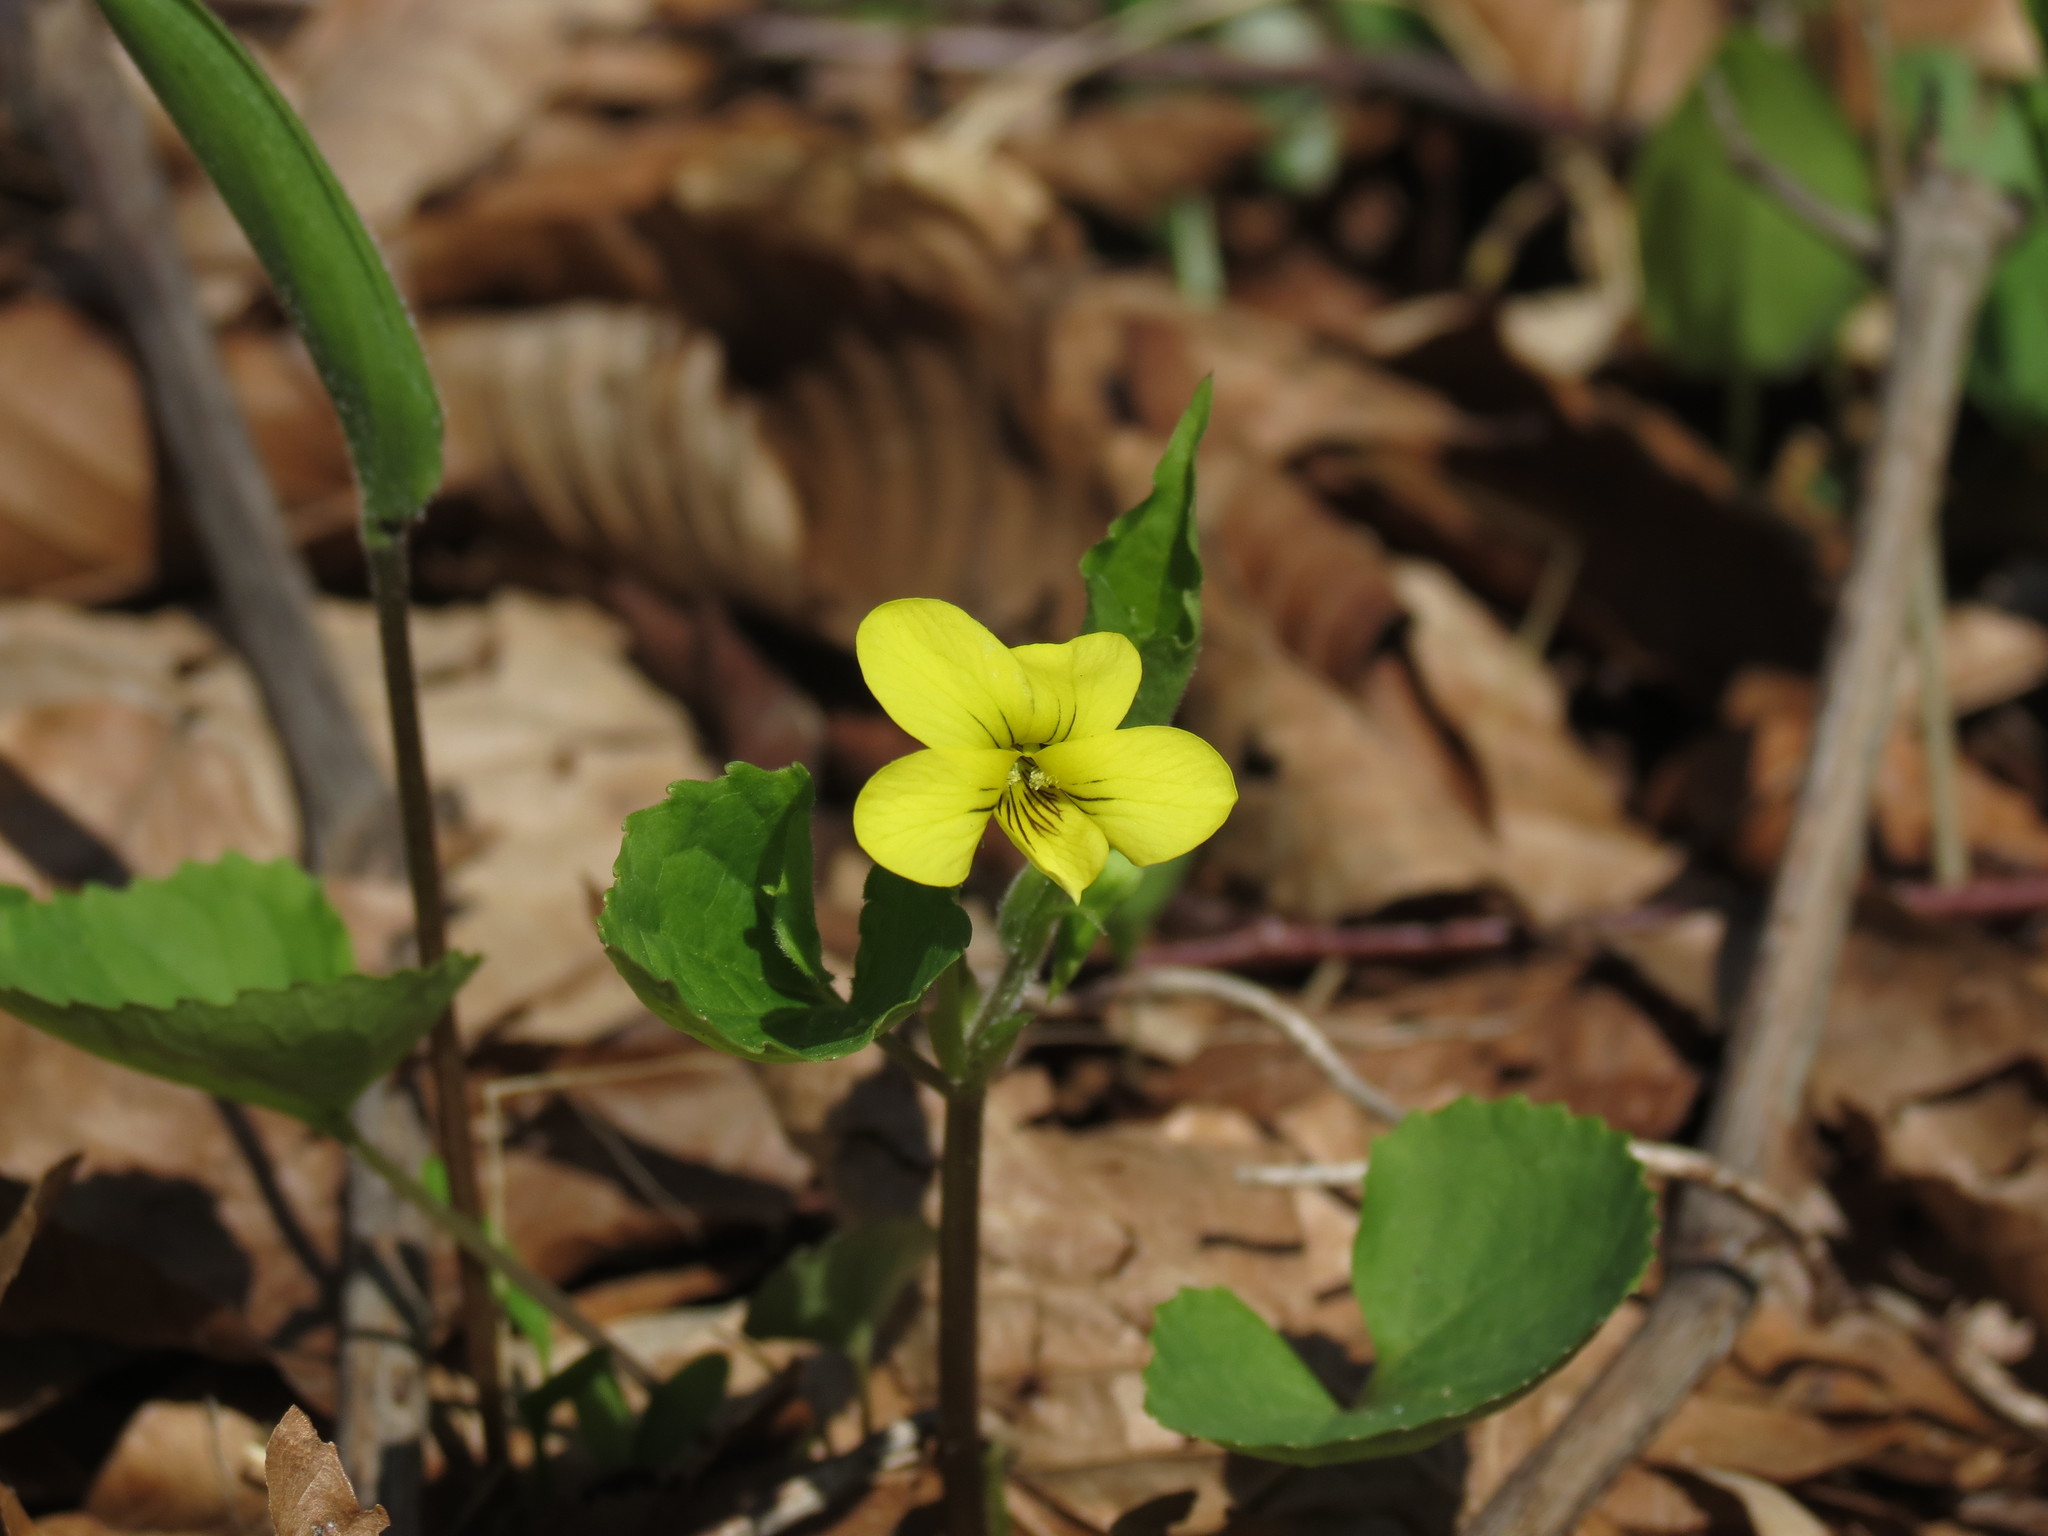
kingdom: Plantae
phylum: Tracheophyta
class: Magnoliopsida
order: Malpighiales
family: Violaceae
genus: Viola
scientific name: Viola eriocarpa
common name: Smooth yellow violet
